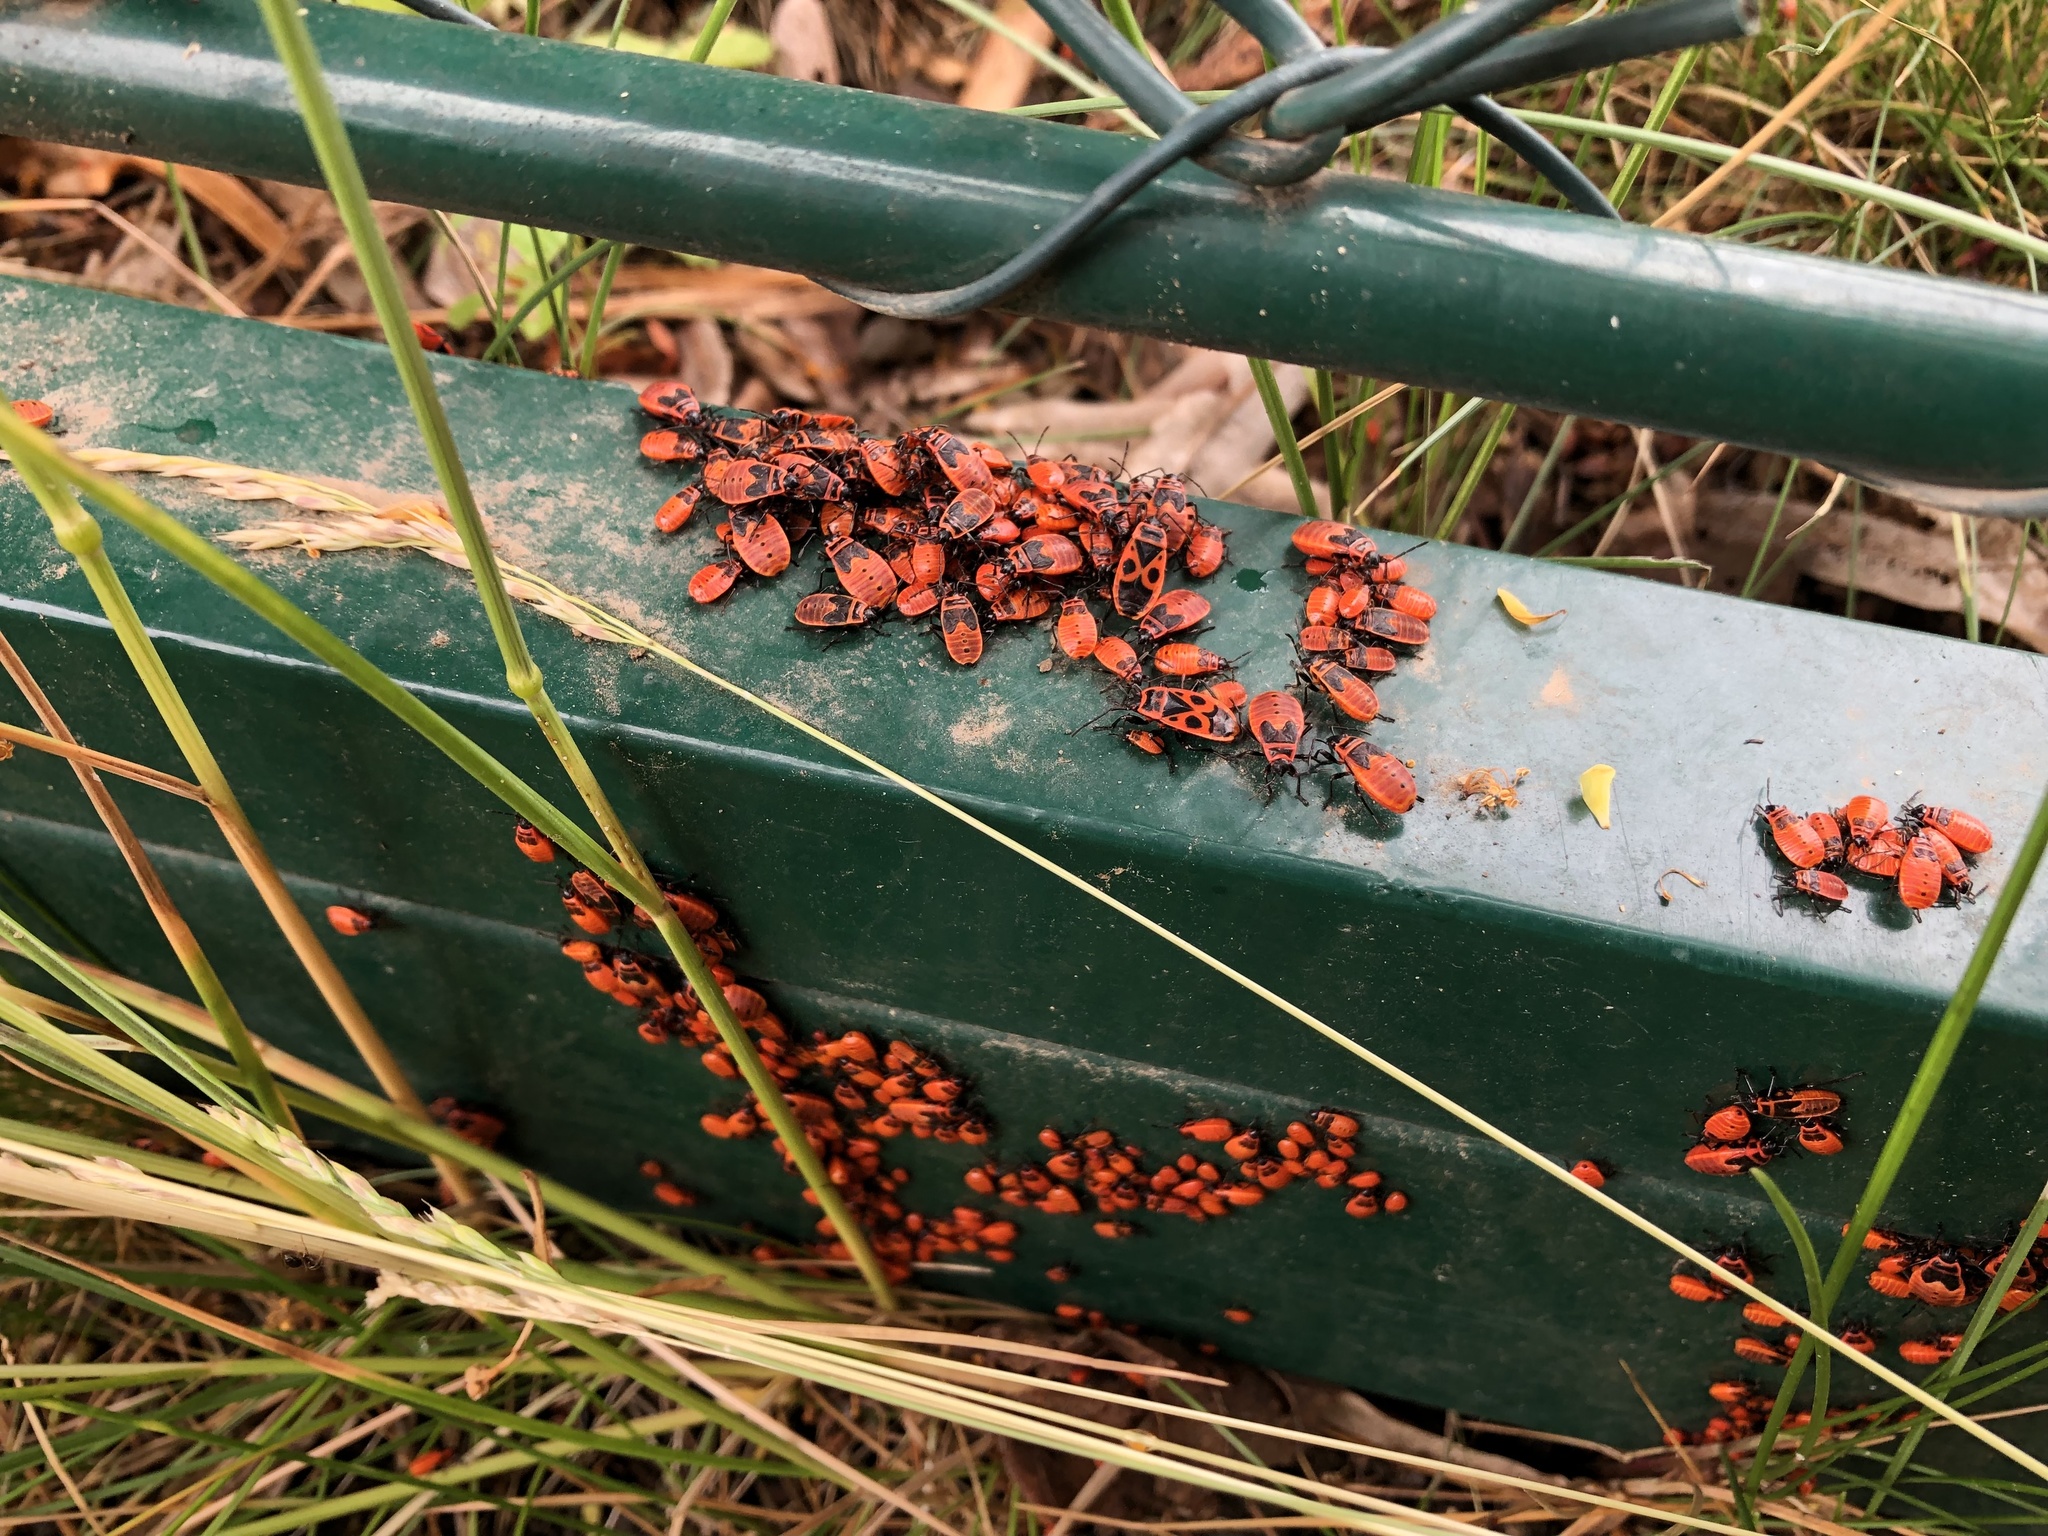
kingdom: Animalia
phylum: Arthropoda
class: Insecta
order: Hemiptera
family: Pyrrhocoridae
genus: Pyrrhocoris
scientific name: Pyrrhocoris apterus
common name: Firebug
